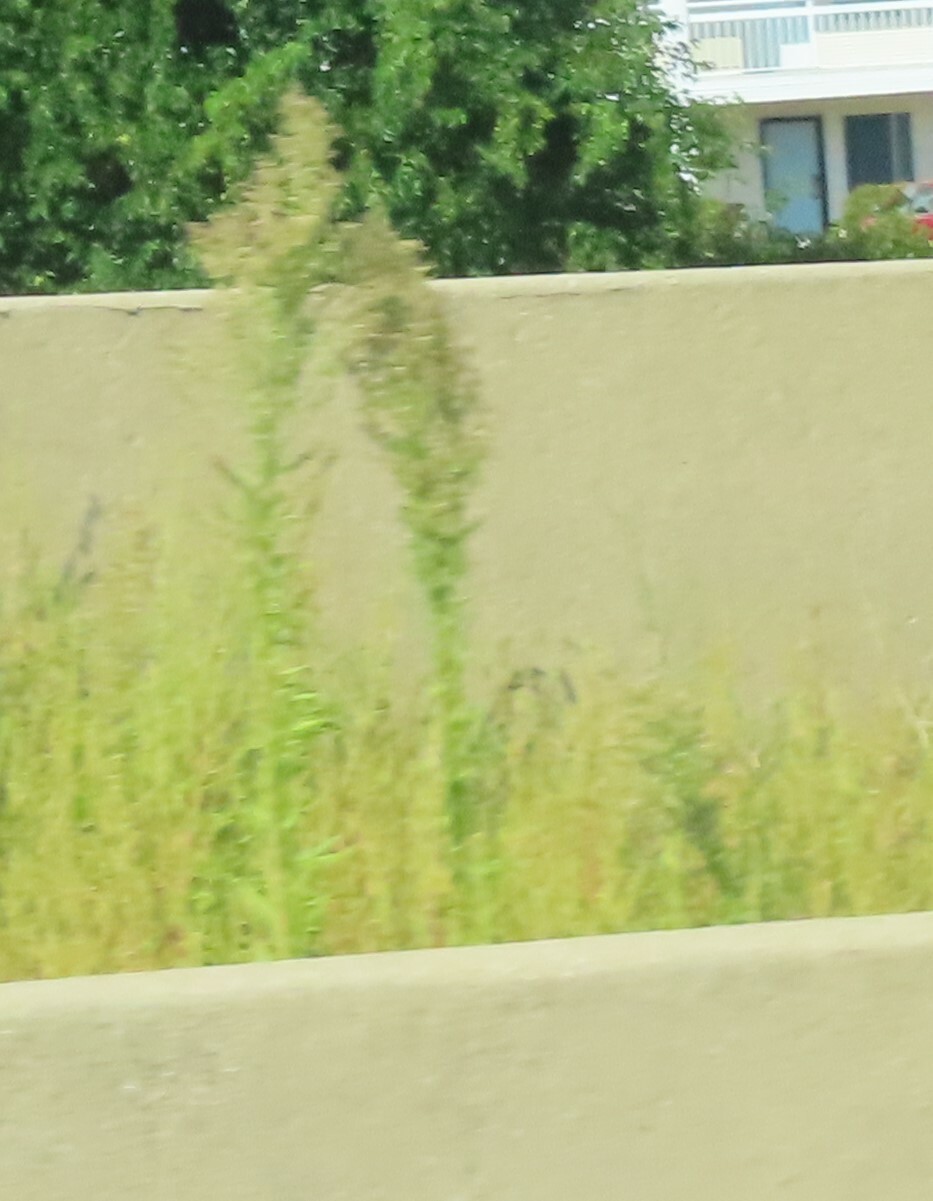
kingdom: Plantae
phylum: Tracheophyta
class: Magnoliopsida
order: Asterales
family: Asteraceae
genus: Erigeron
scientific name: Erigeron canadensis
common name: Canadian fleabane
